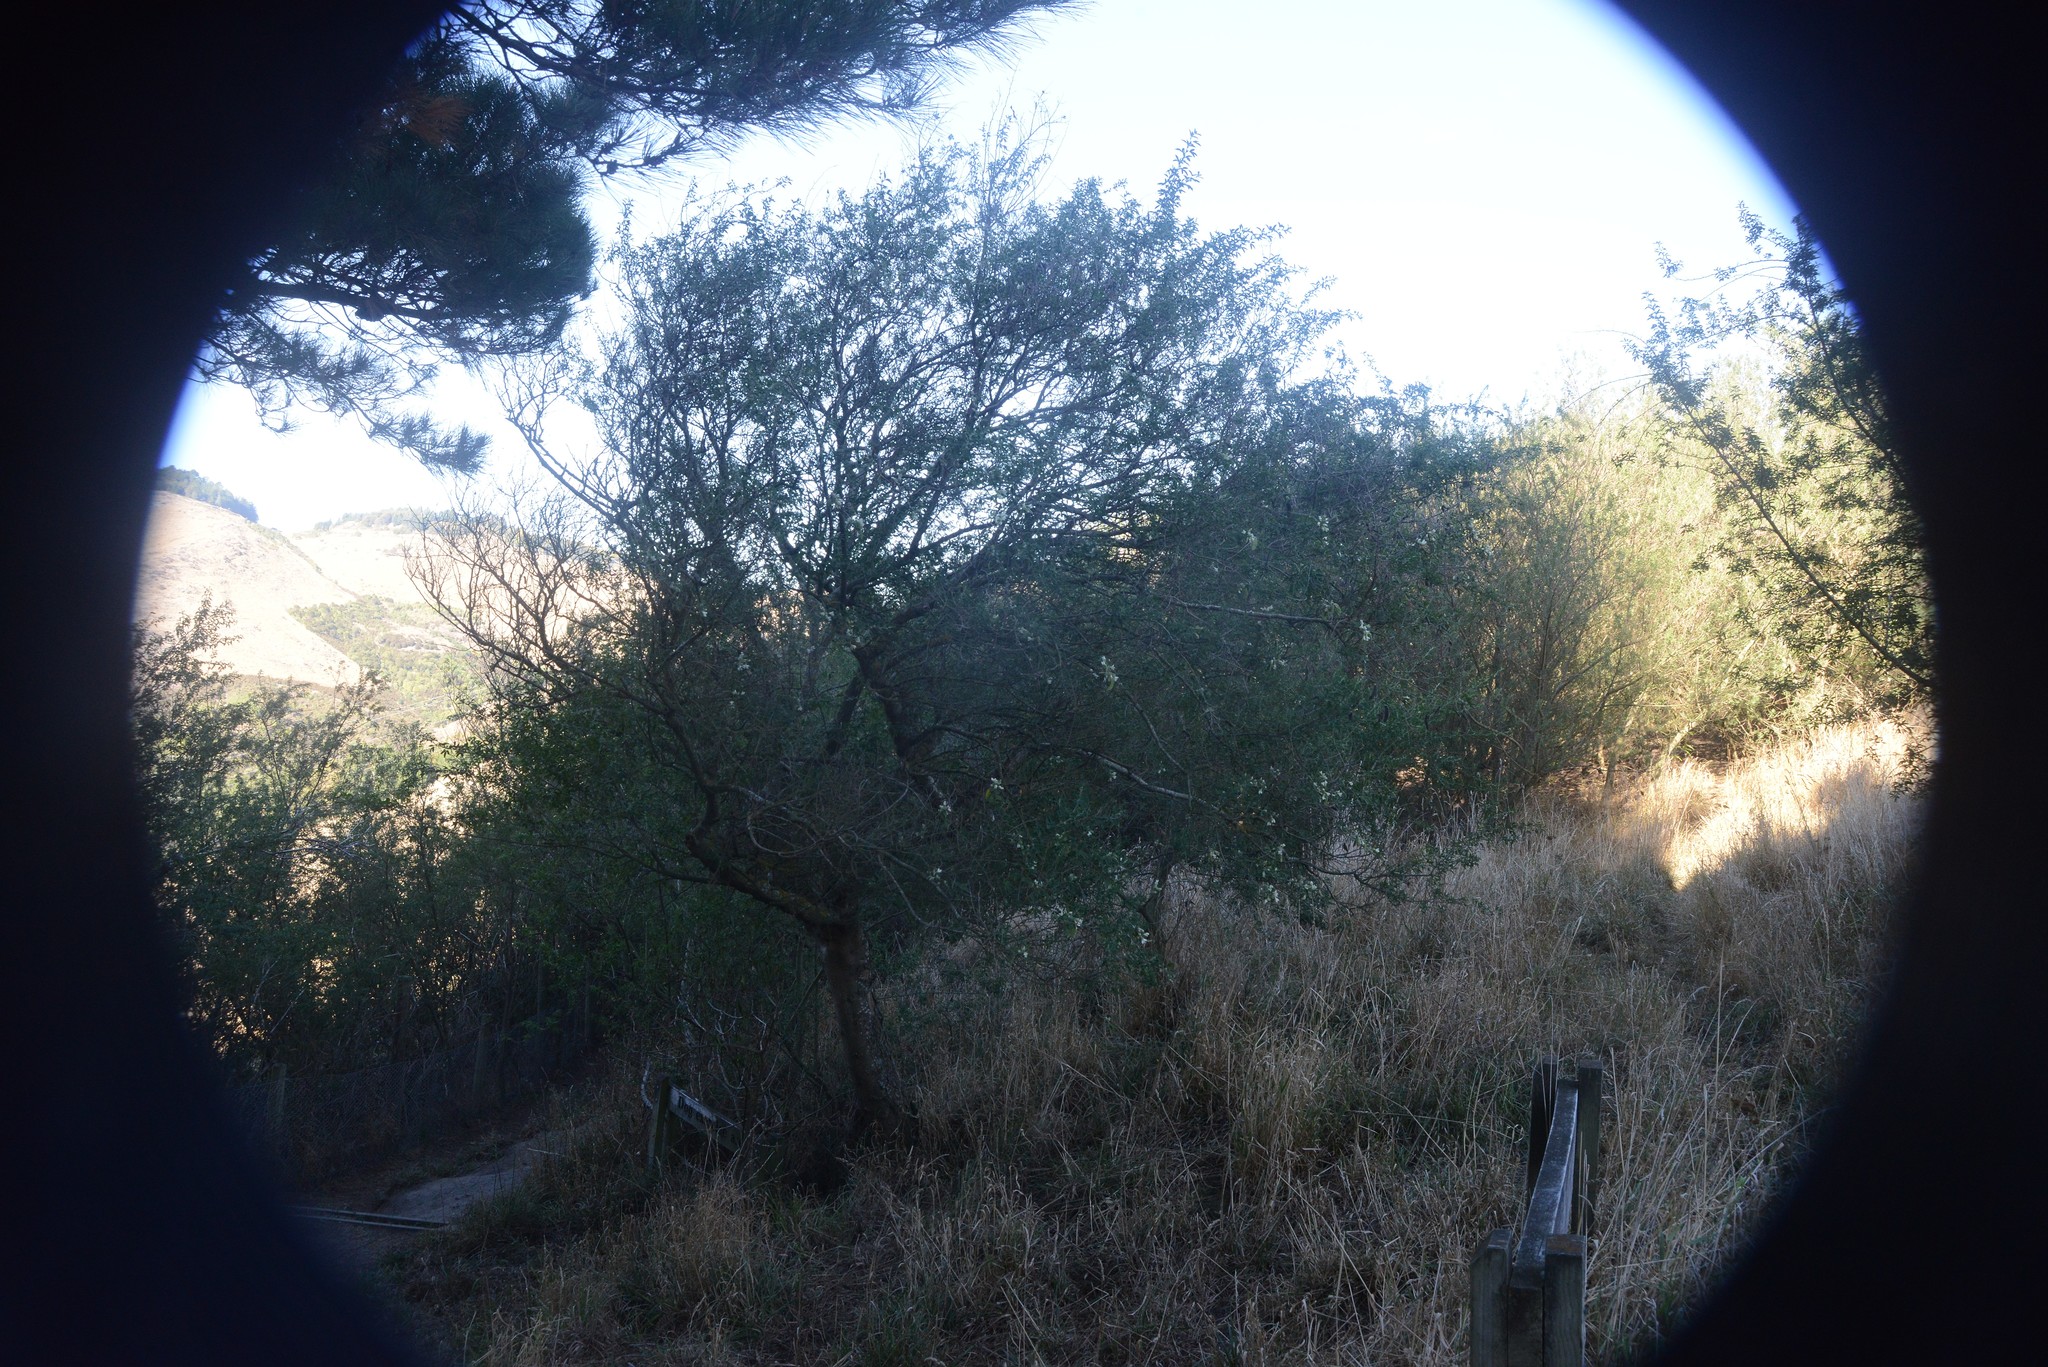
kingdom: Plantae
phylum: Tracheophyta
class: Magnoliopsida
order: Fabales
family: Fabaceae
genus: Chamaecytisus
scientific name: Chamaecytisus prolifer
